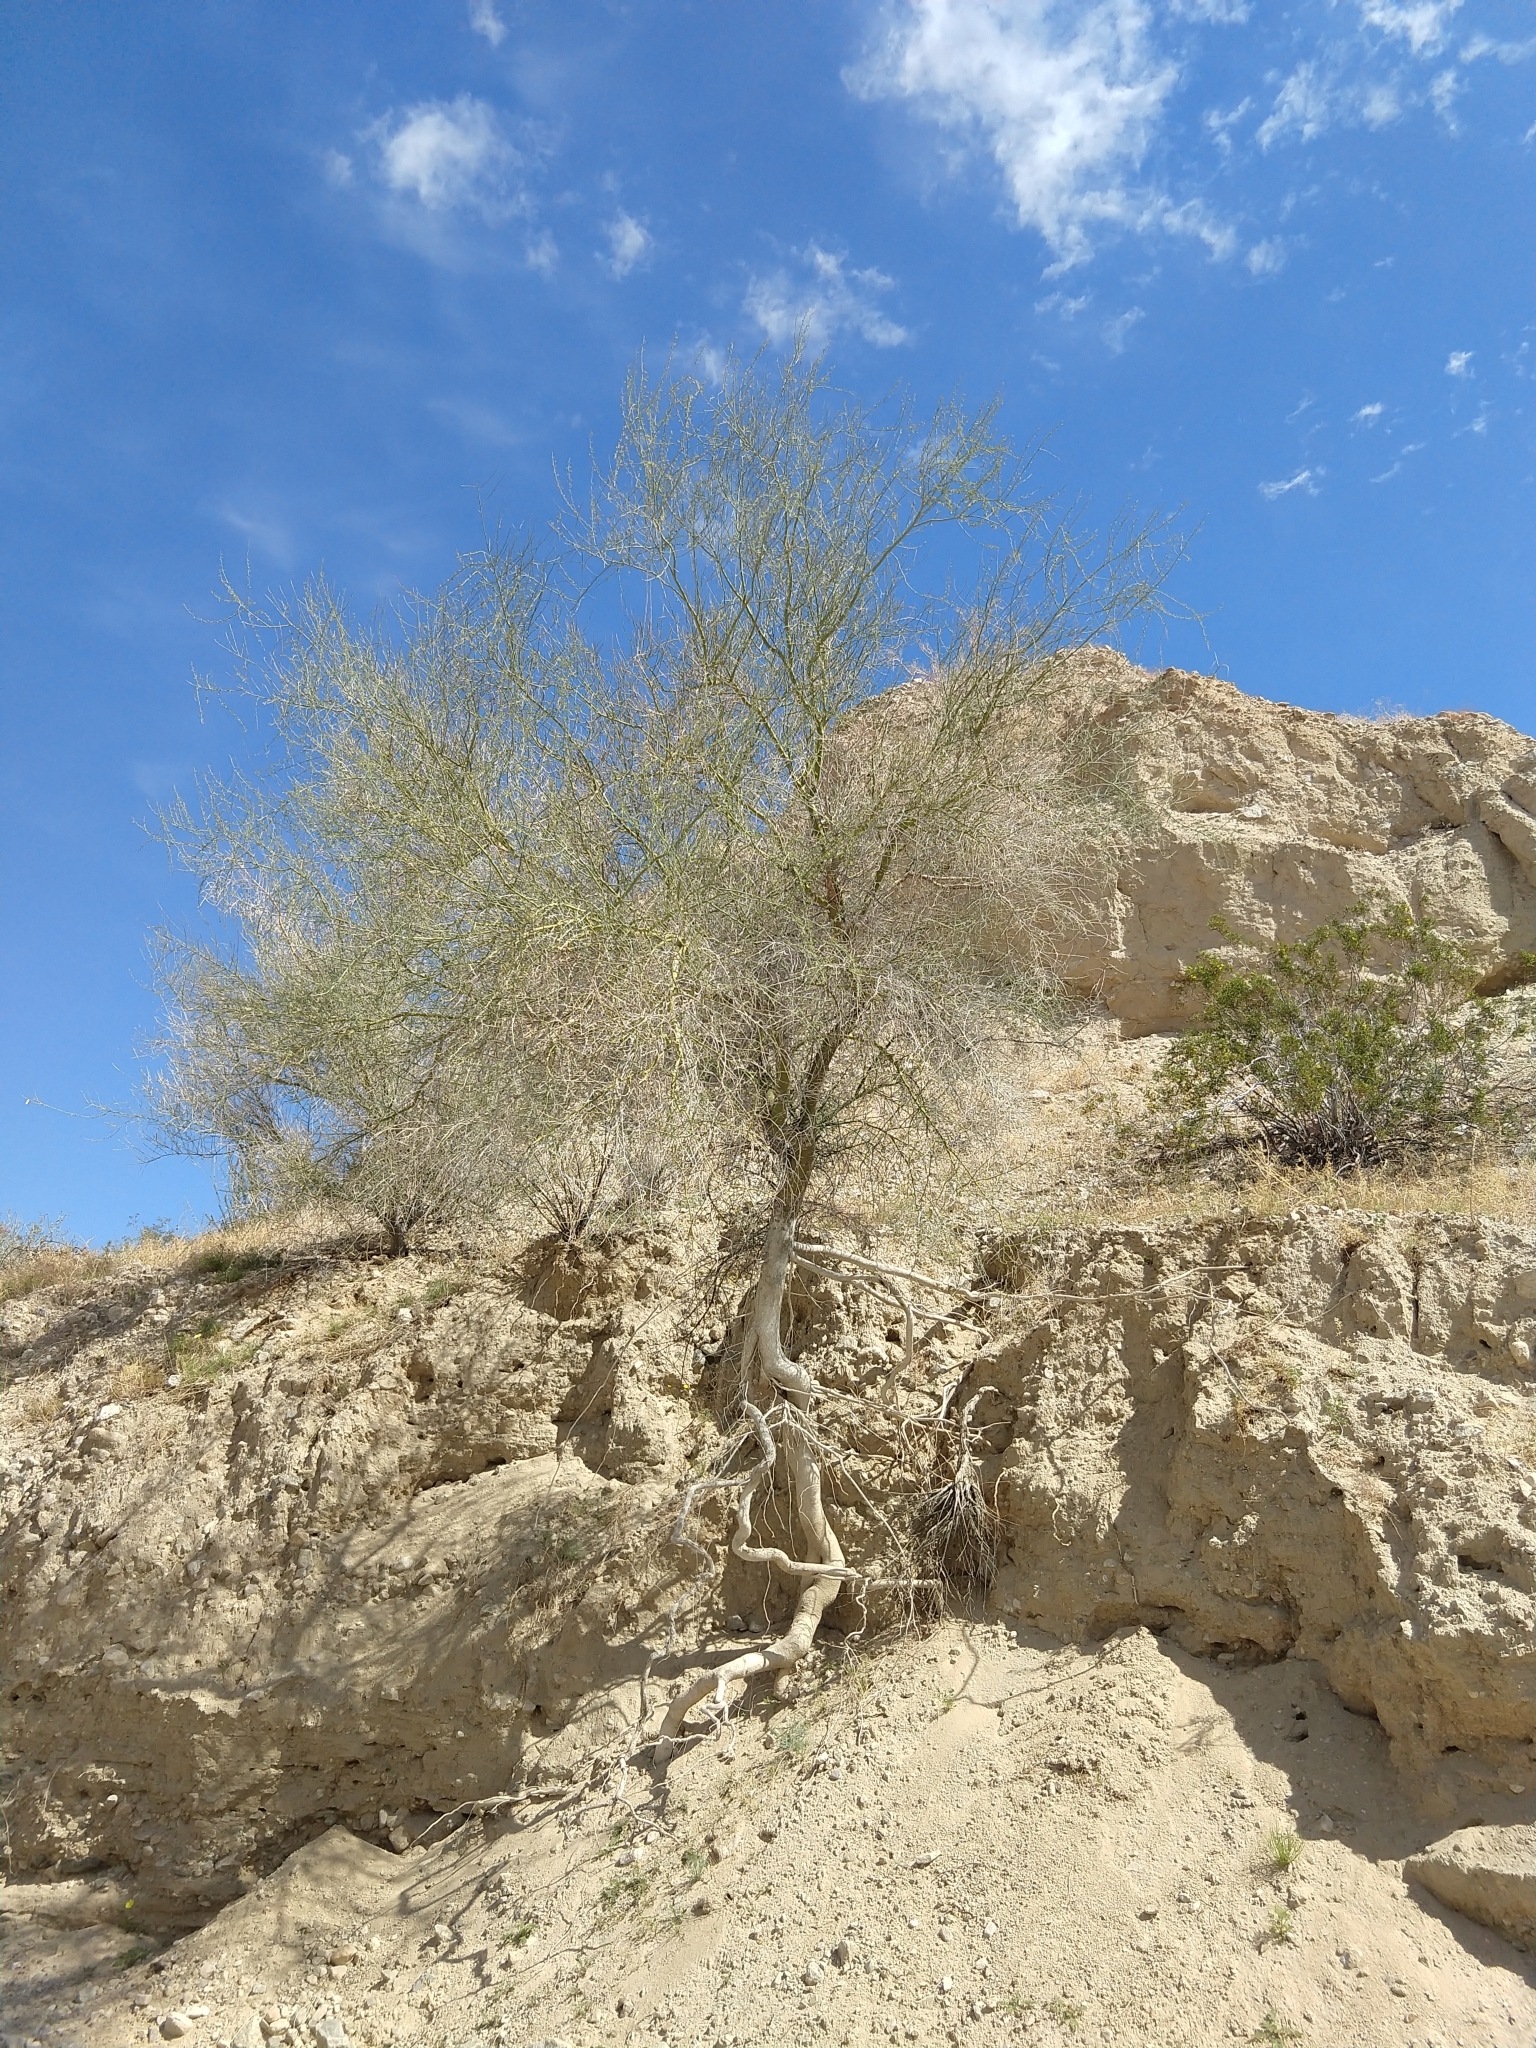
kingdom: Plantae
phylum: Tracheophyta
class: Magnoliopsida
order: Fabales
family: Fabaceae
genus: Parkinsonia
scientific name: Parkinsonia florida
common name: Blue paloverde
